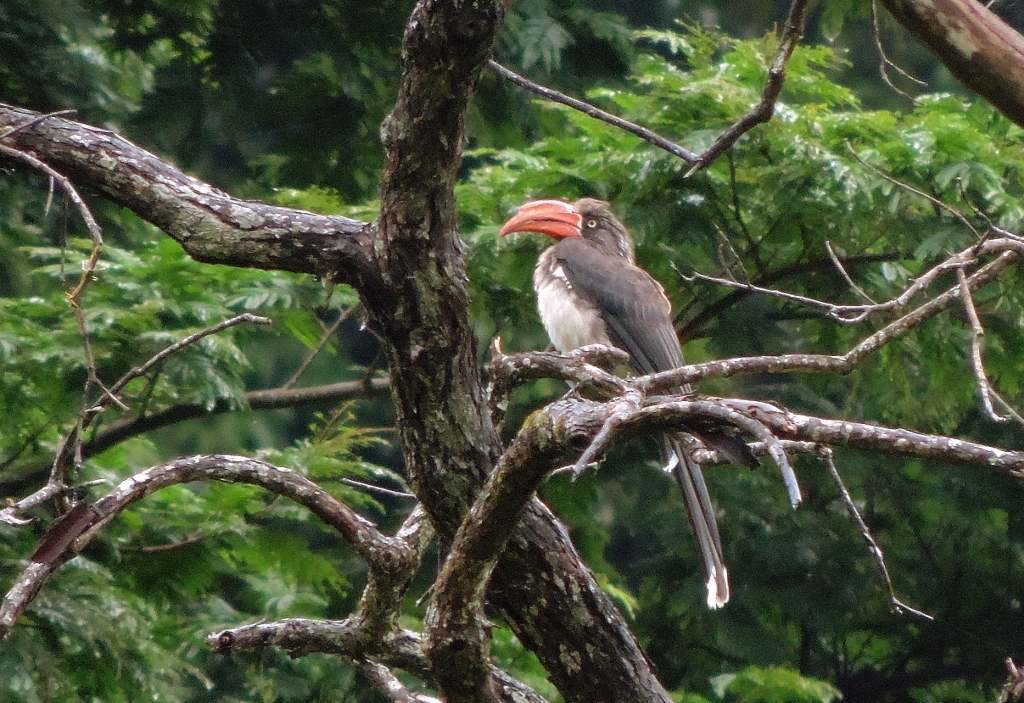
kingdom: Animalia
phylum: Chordata
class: Aves
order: Bucerotiformes
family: Bucerotidae
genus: Lophoceros
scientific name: Lophoceros alboterminatus
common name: Crowned hornbill
